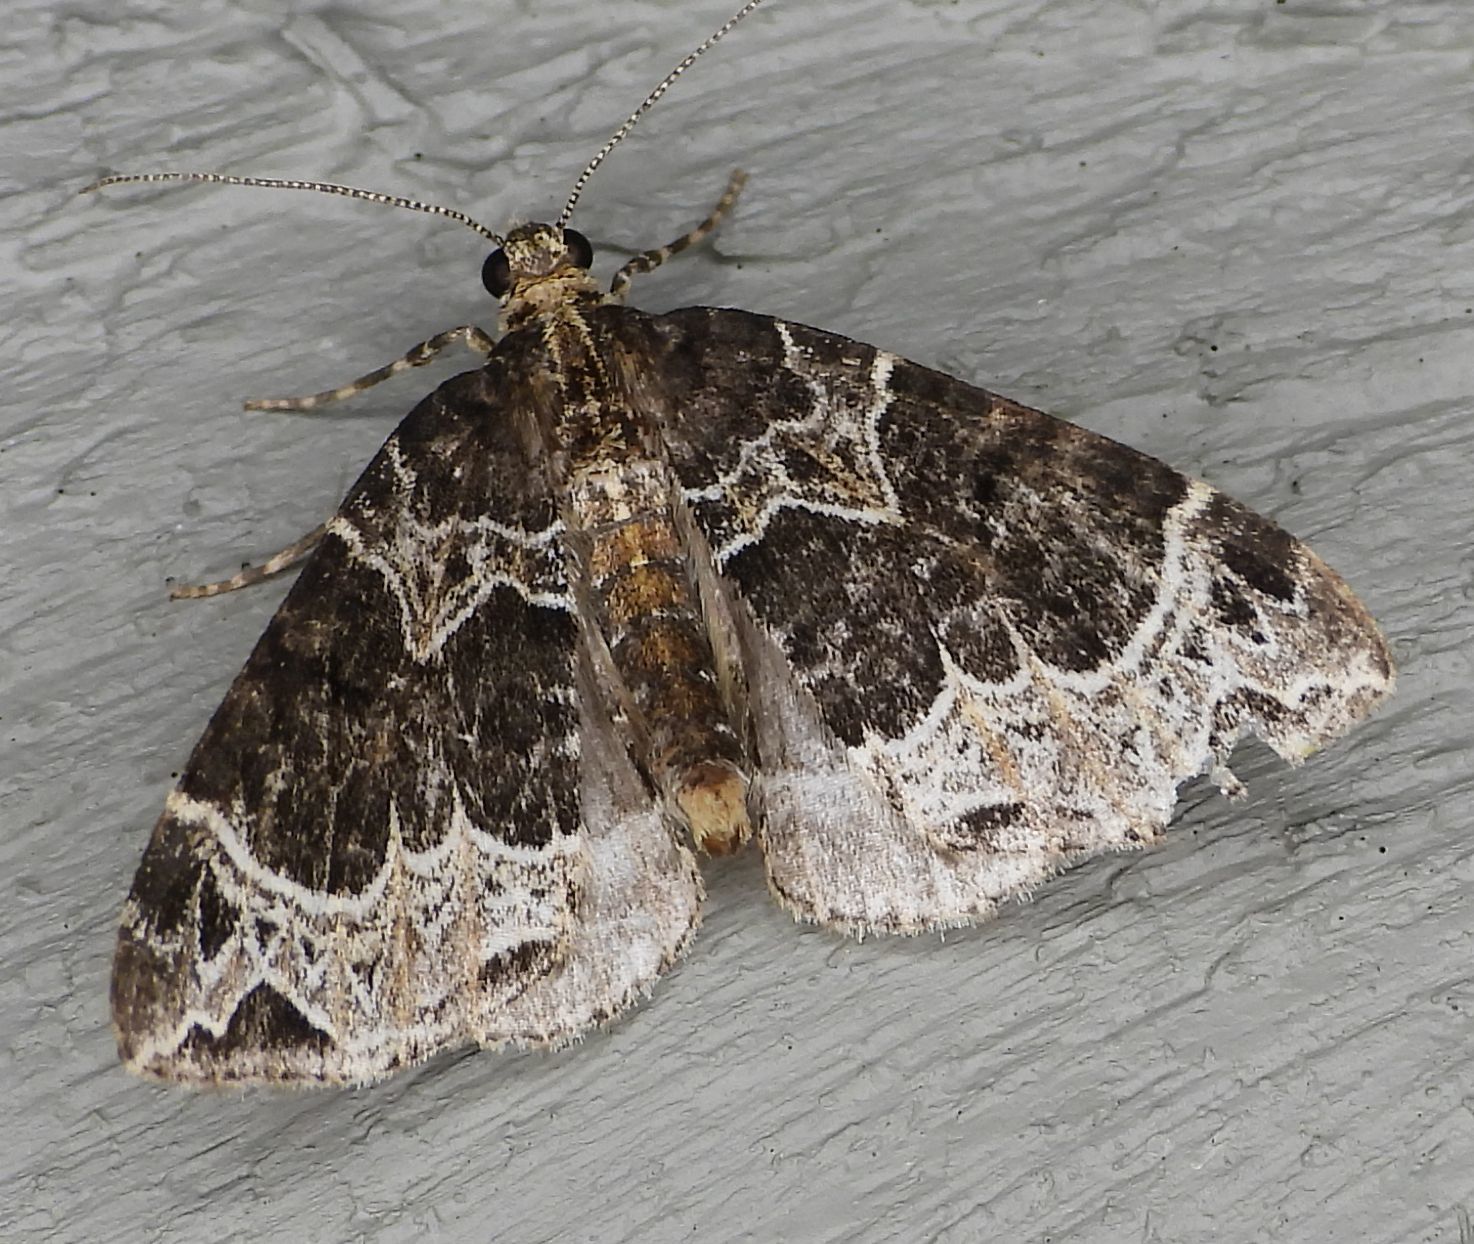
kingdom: Animalia
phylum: Arthropoda
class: Insecta
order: Lepidoptera
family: Geometridae
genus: Ecliptopera
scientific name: Ecliptopera silaceata
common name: Small phoenix
